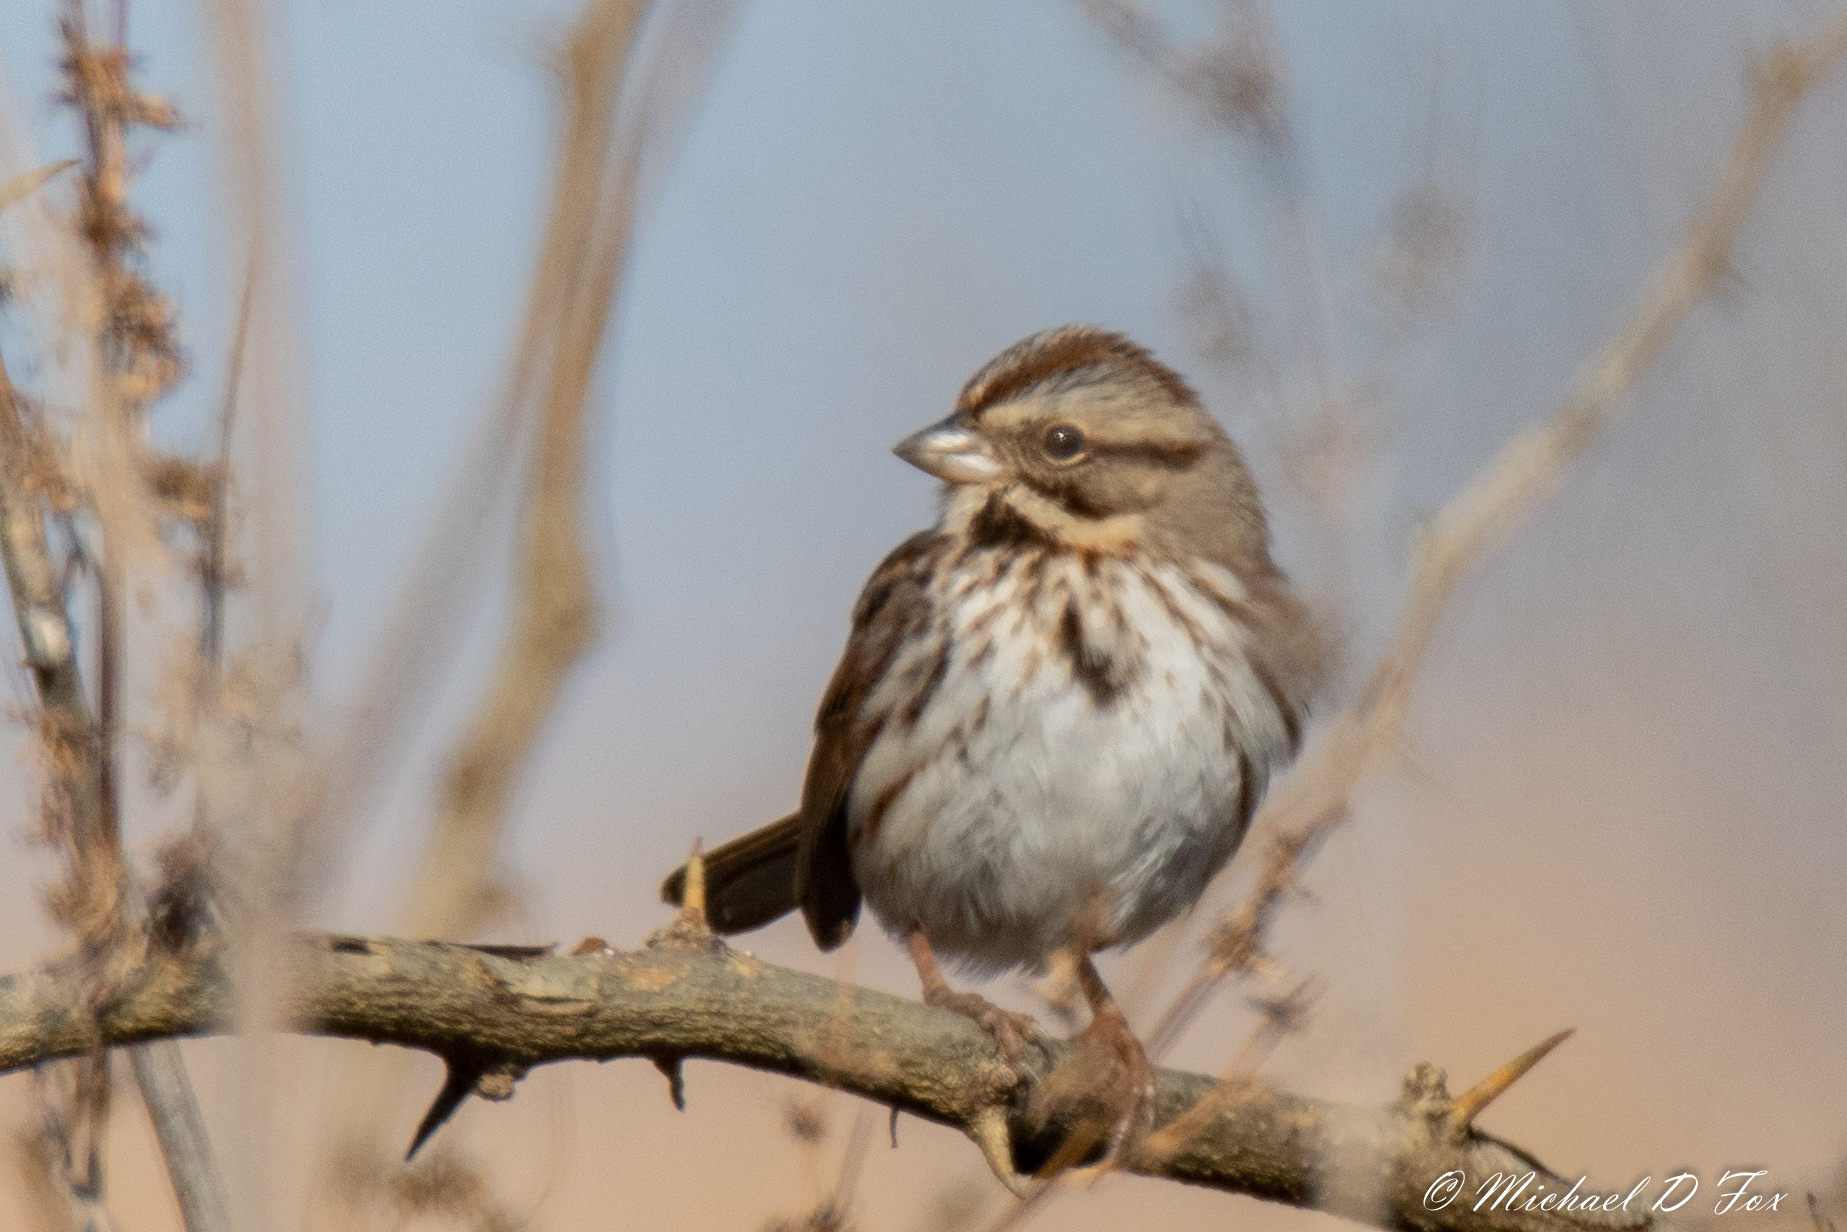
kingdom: Animalia
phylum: Chordata
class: Aves
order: Passeriformes
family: Passerellidae
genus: Melospiza
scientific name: Melospiza melodia
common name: Song sparrow
